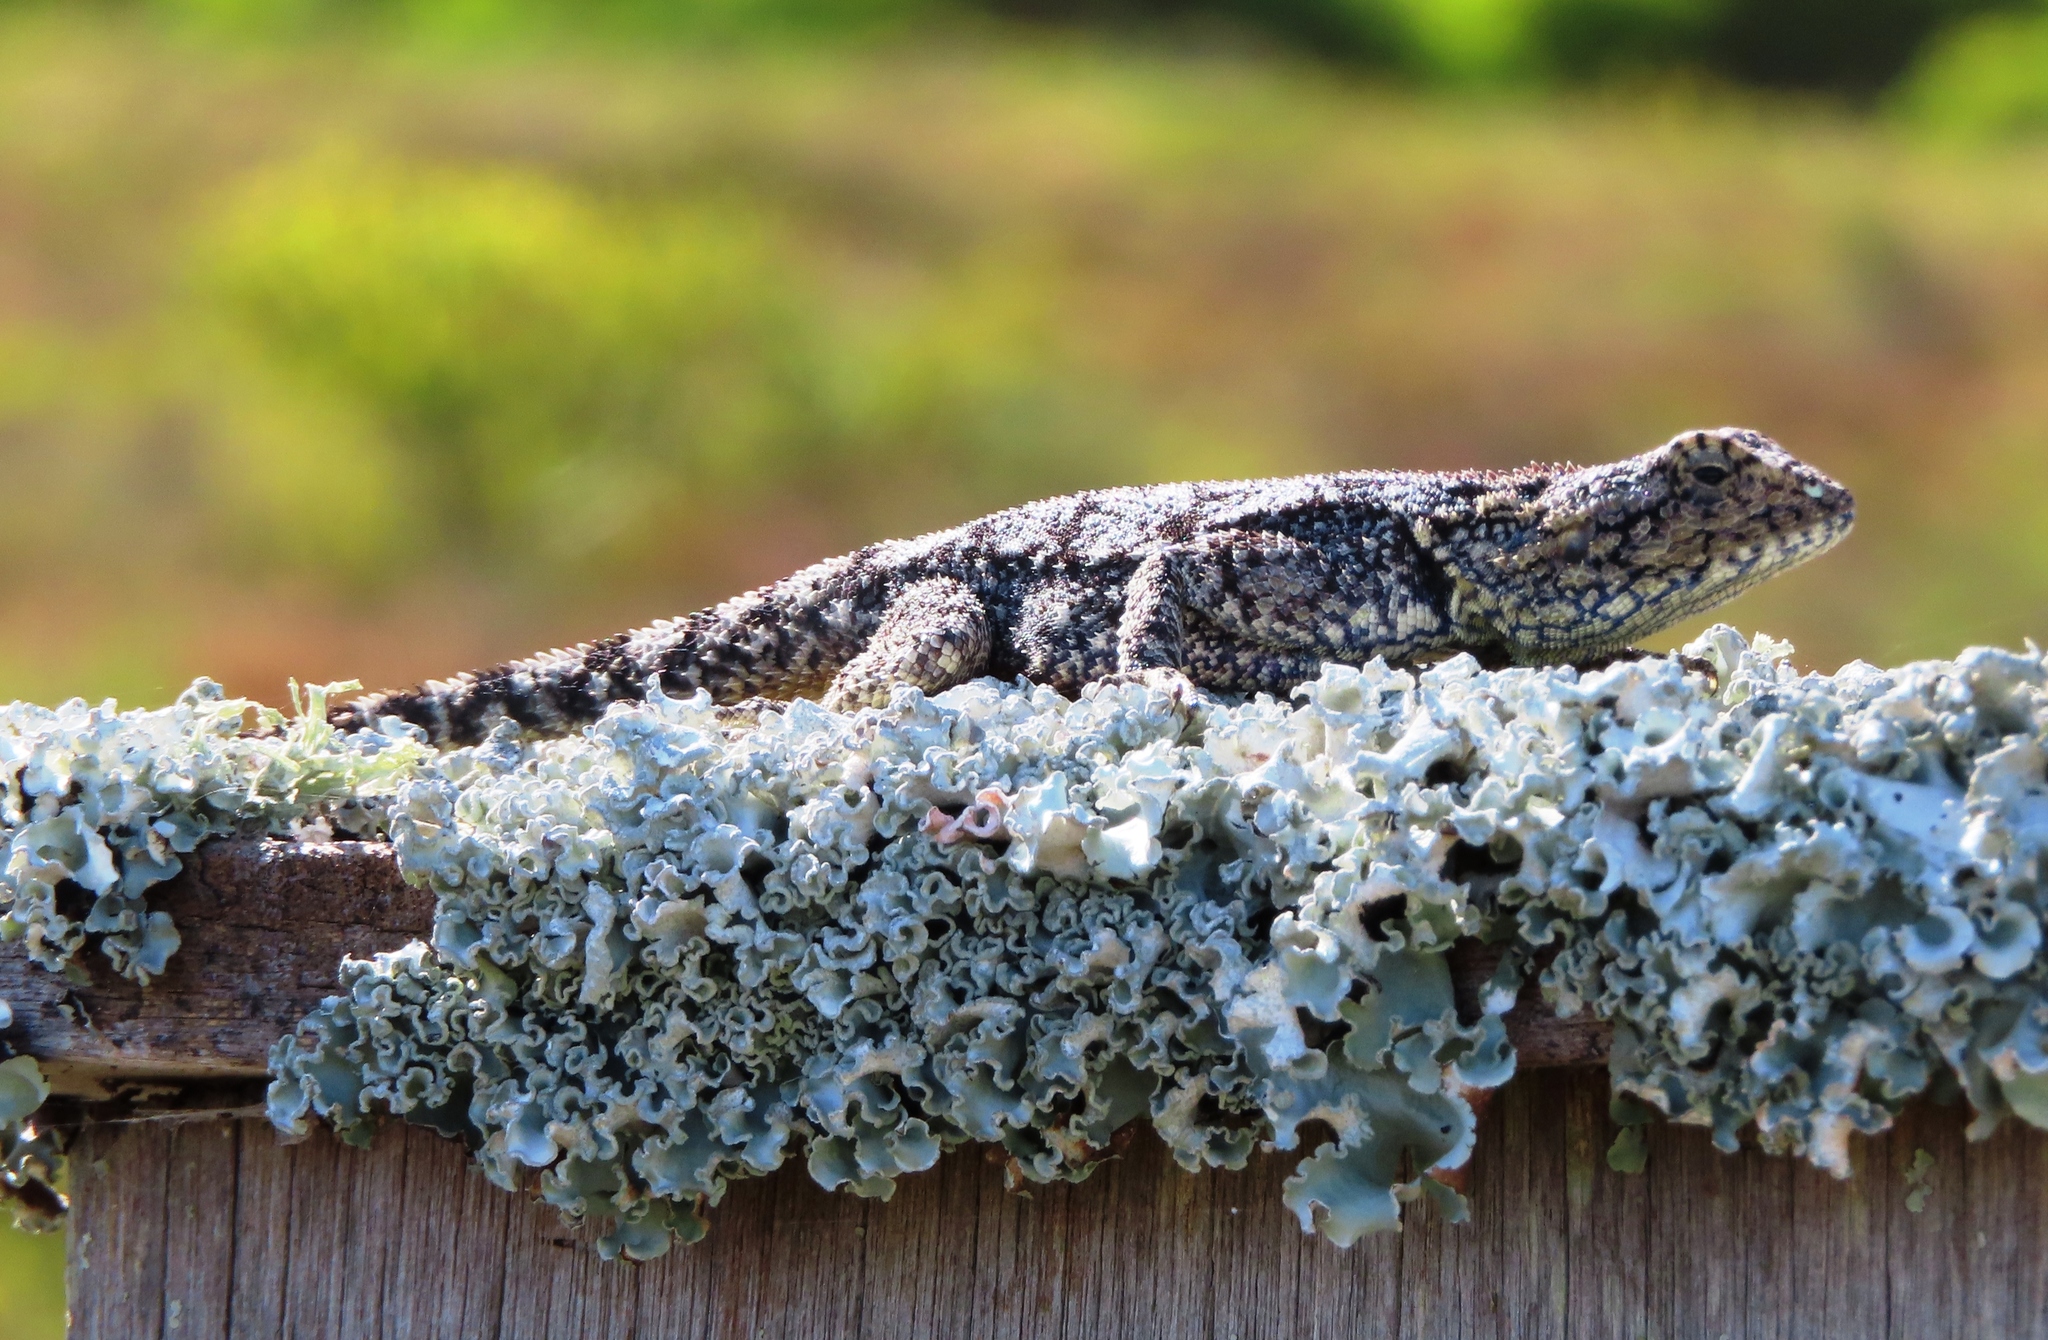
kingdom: Animalia
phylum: Chordata
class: Squamata
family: Agamidae
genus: Agama
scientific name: Agama atra
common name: Southern african rock agama
